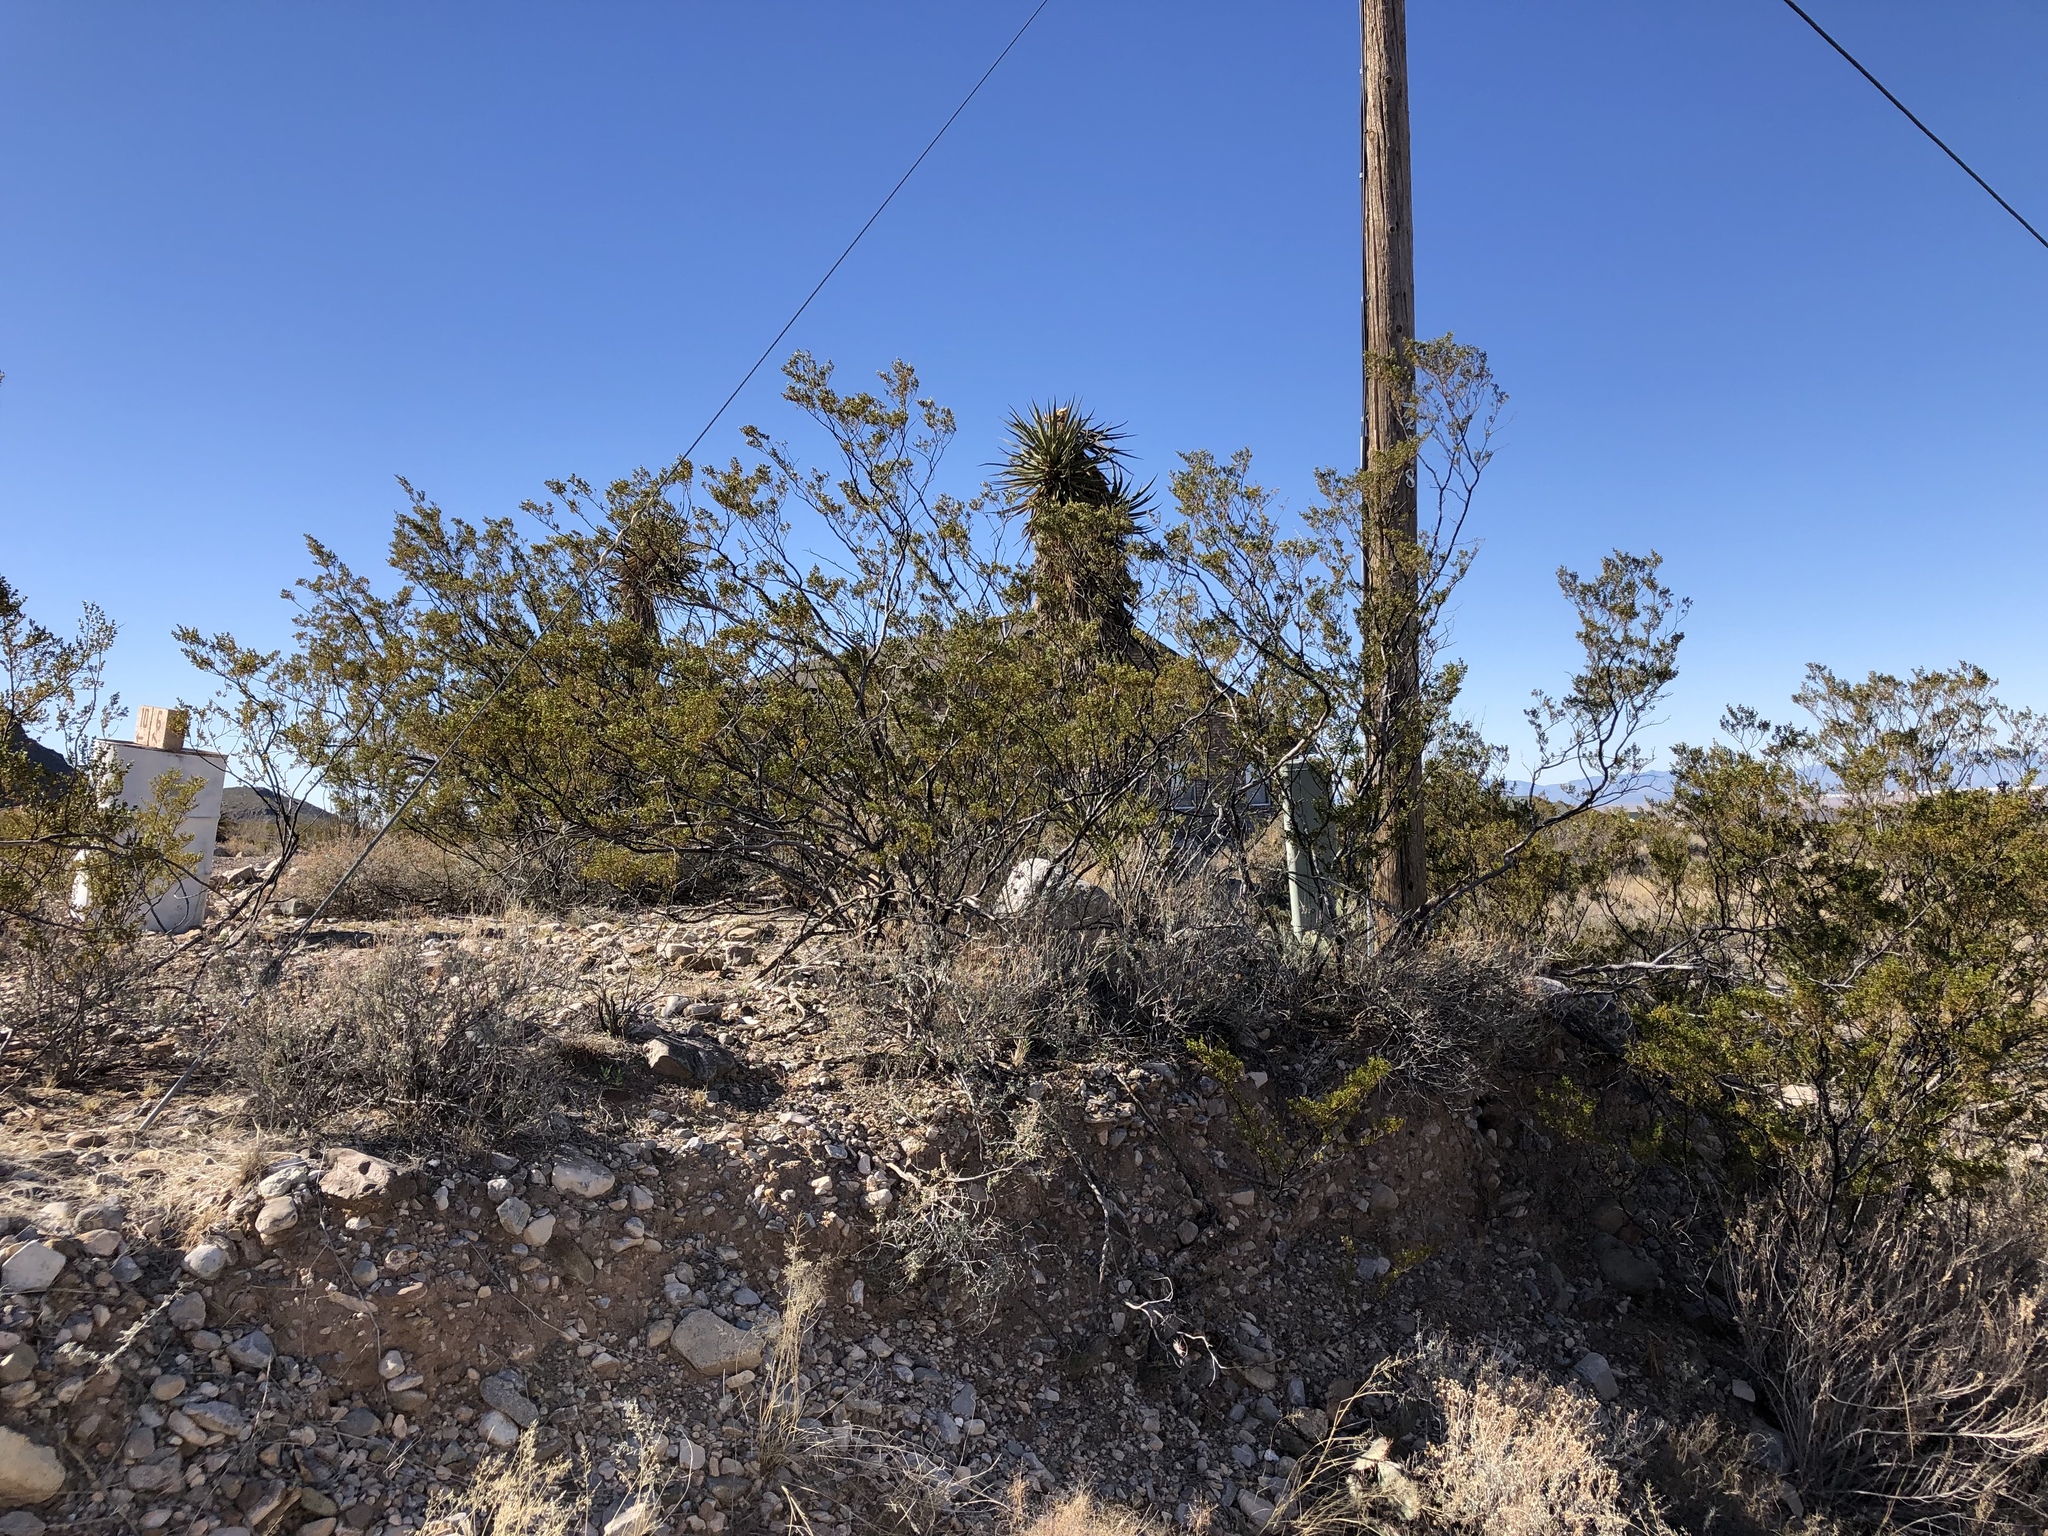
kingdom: Plantae
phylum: Tracheophyta
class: Magnoliopsida
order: Zygophyllales
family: Zygophyllaceae
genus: Larrea
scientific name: Larrea tridentata
